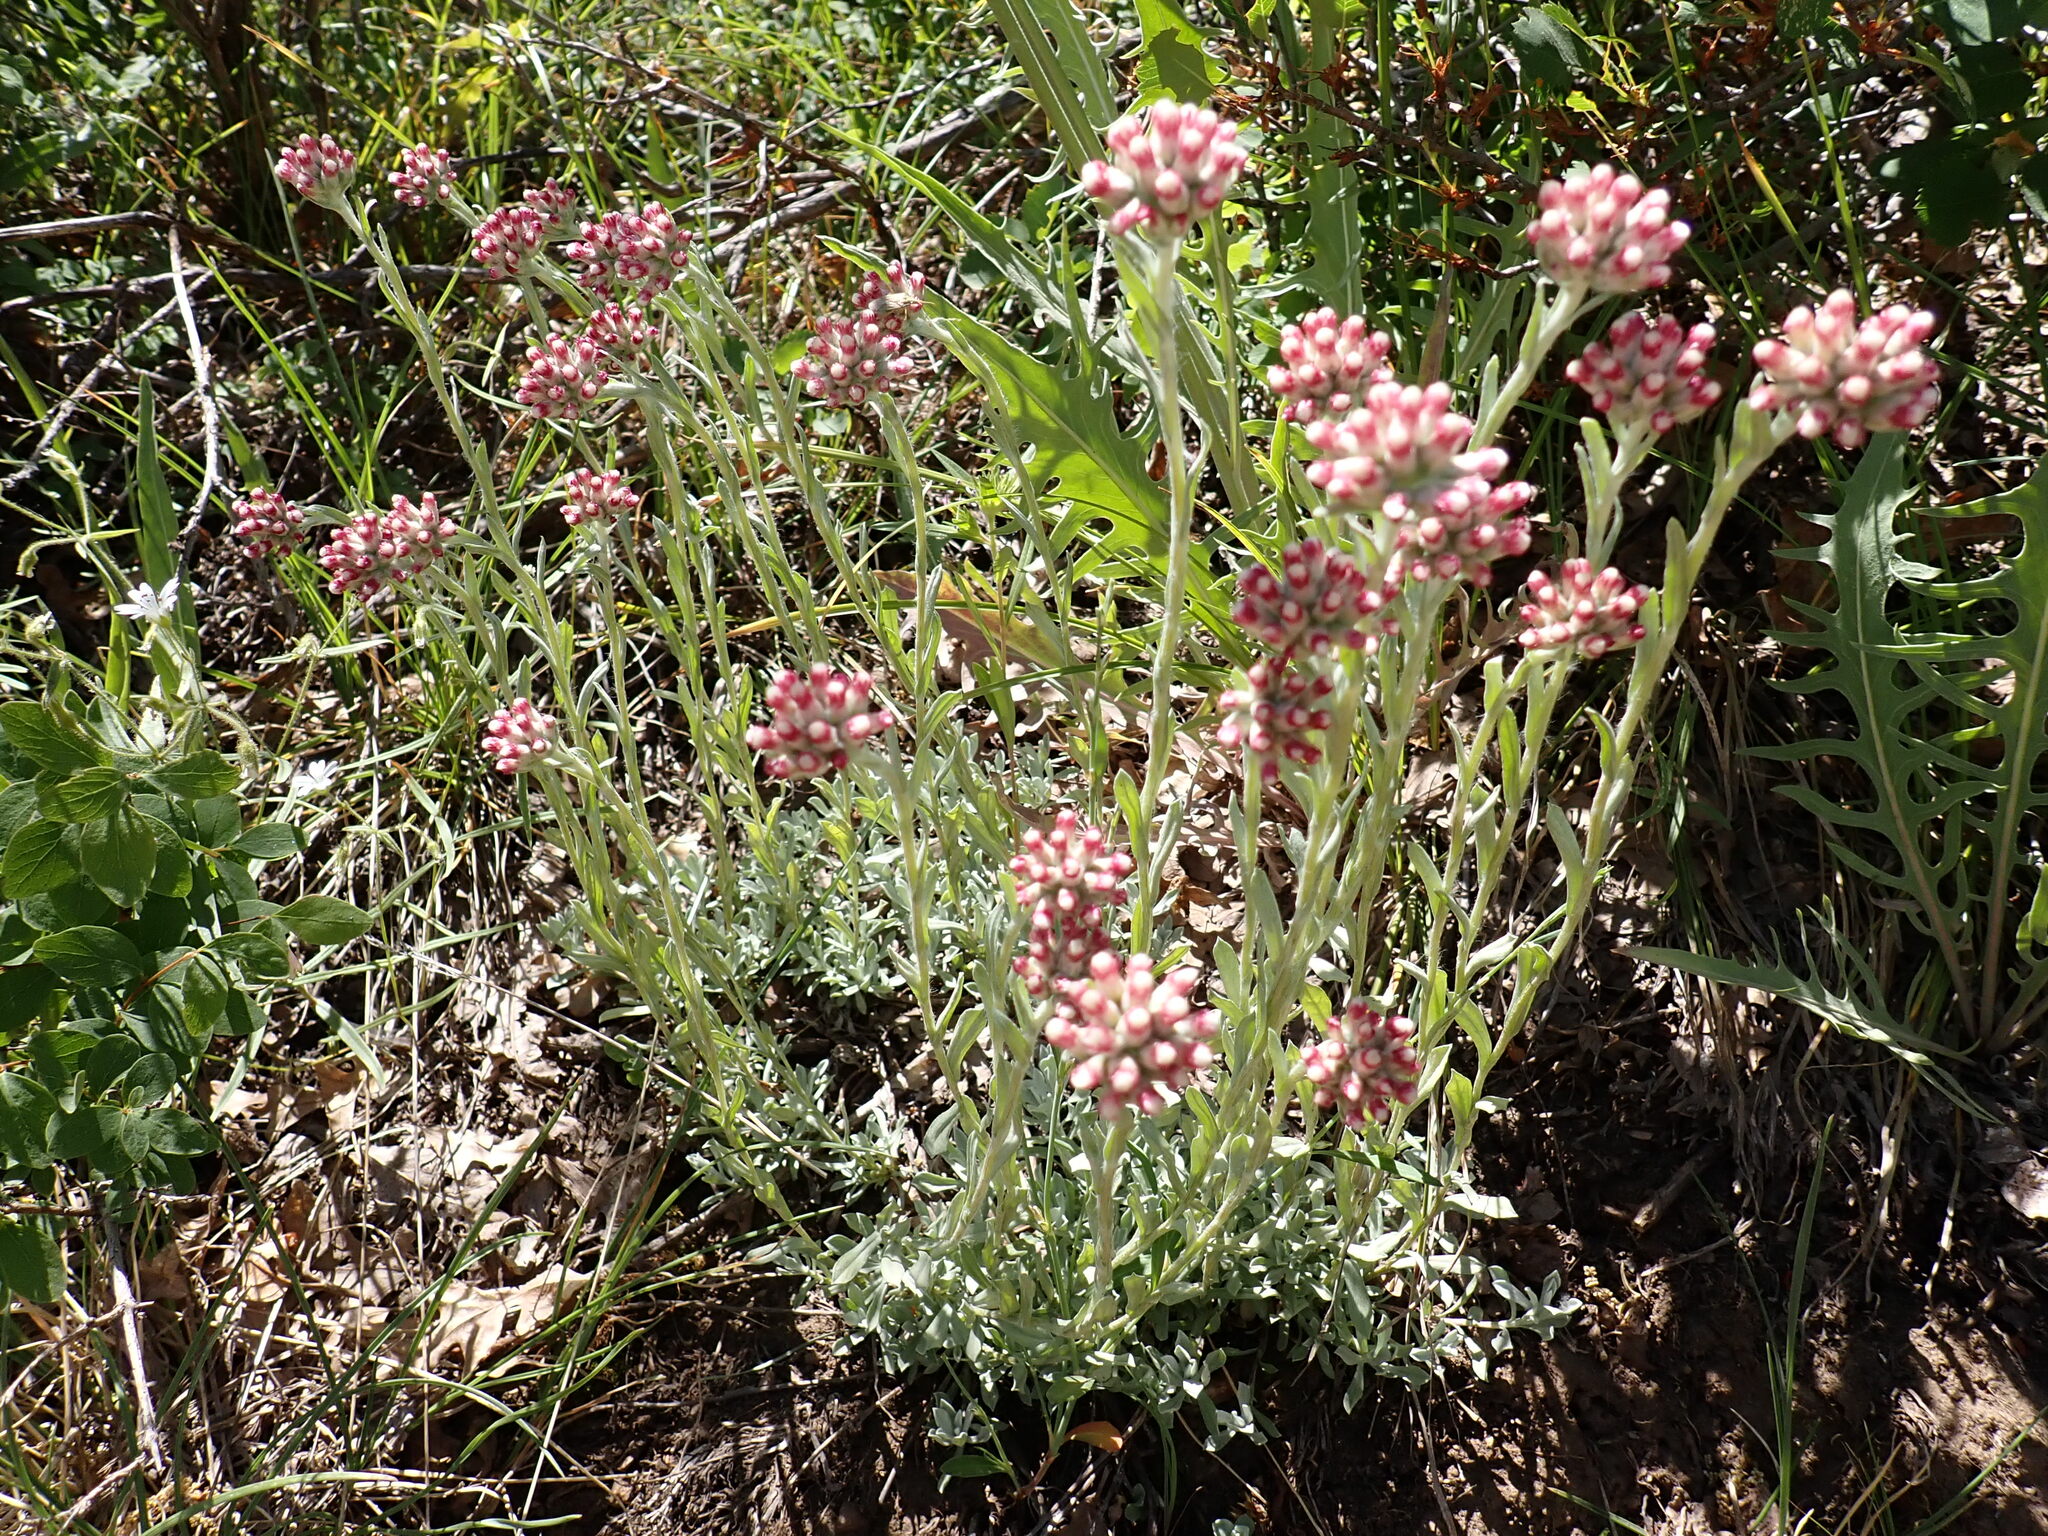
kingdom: Plantae
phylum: Tracheophyta
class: Magnoliopsida
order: Asterales
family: Asteraceae
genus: Antennaria
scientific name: Antennaria rosea
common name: Rosy pussytoes
